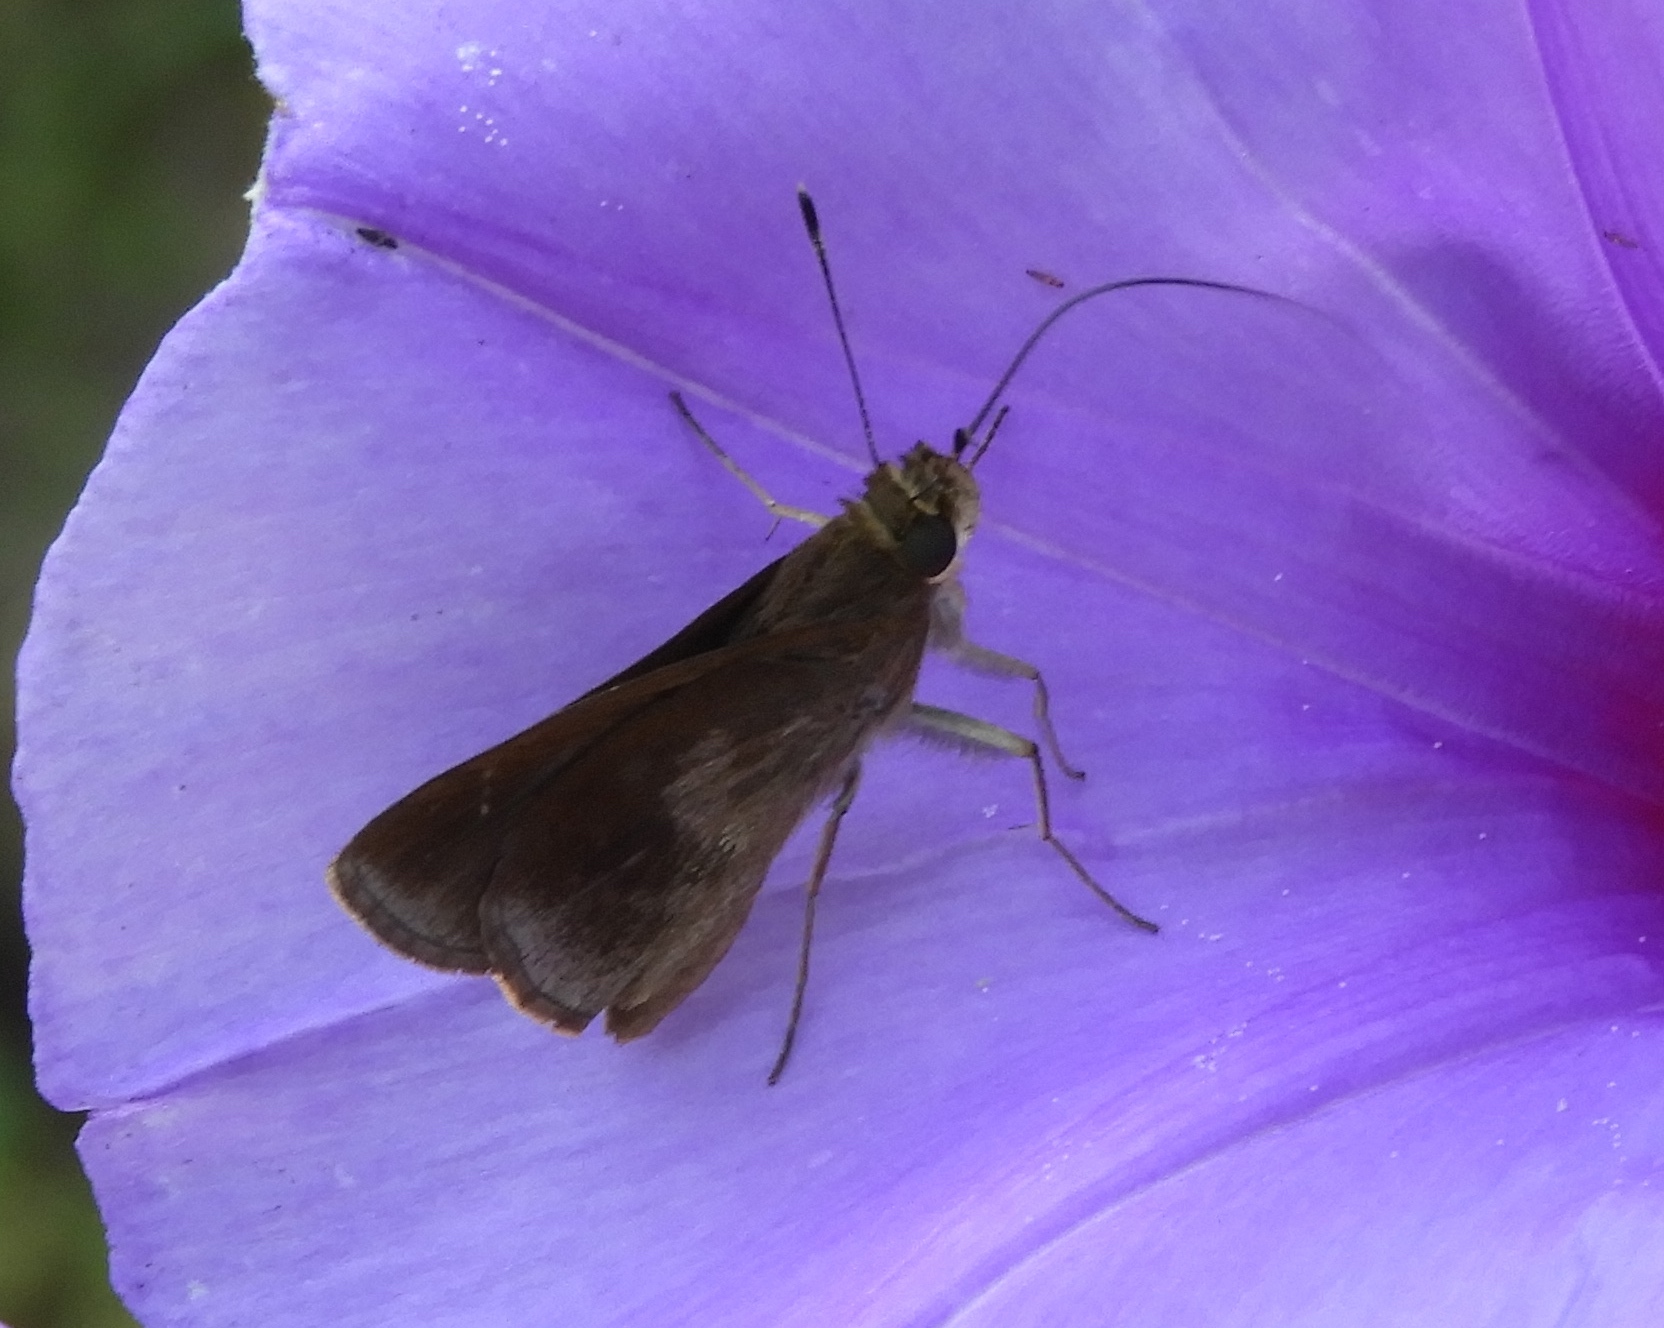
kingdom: Animalia
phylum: Arthropoda
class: Insecta
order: Lepidoptera
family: Hesperiidae
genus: Lerema
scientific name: Lerema accius
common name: Clouded skipper
